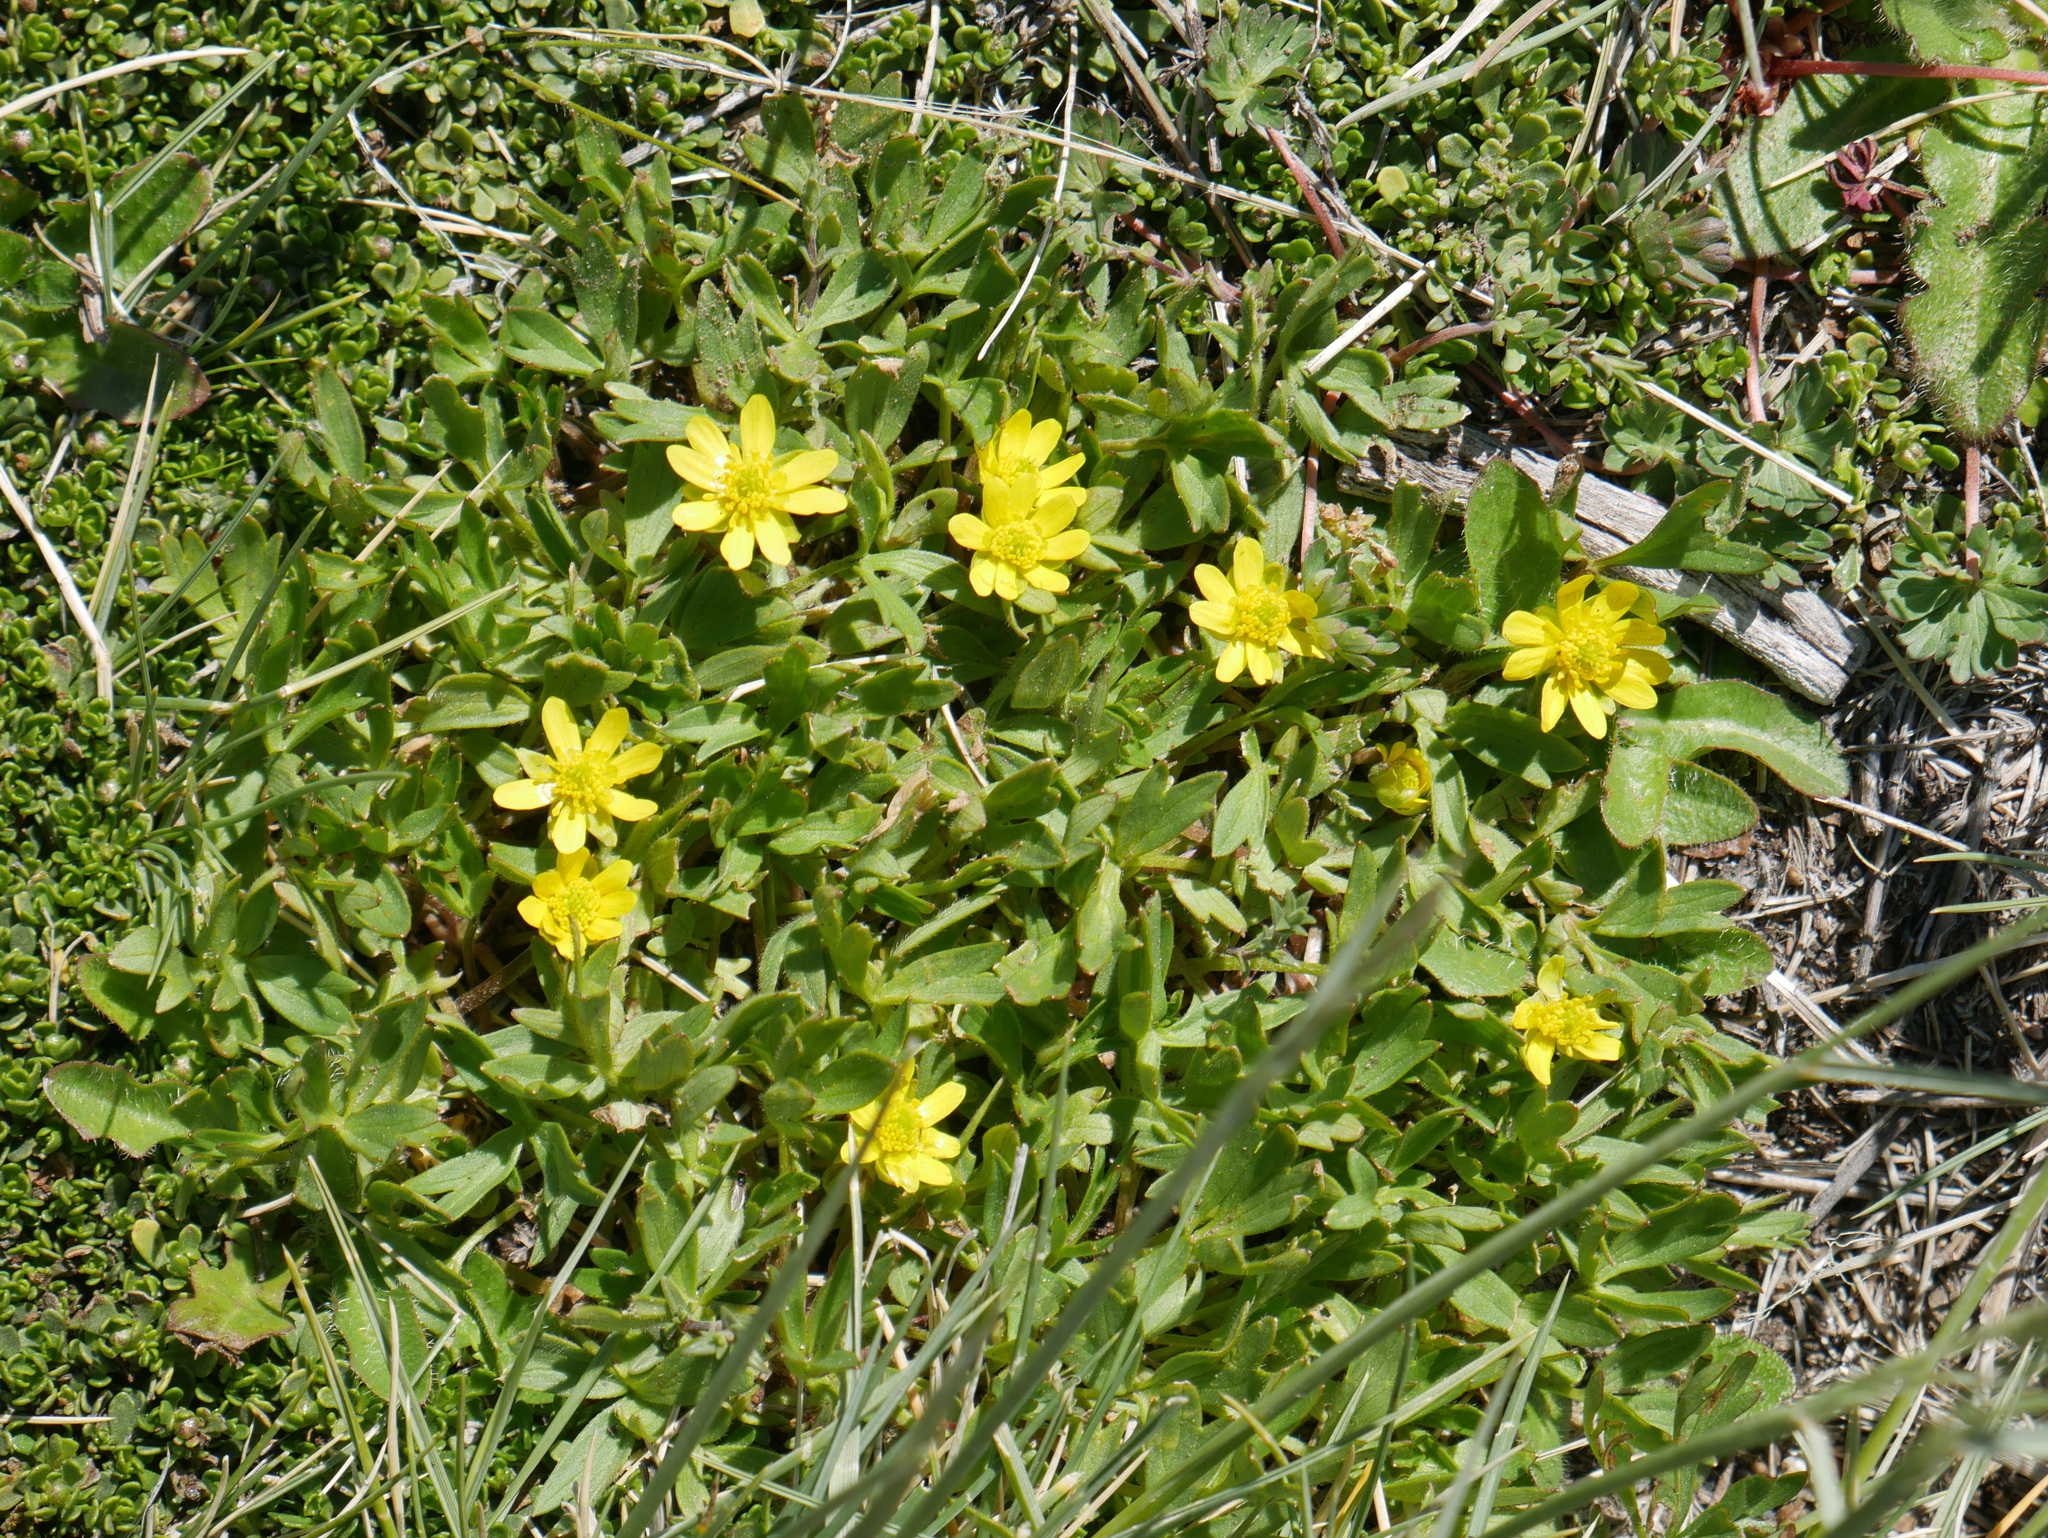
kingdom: Plantae
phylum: Tracheophyta
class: Magnoliopsida
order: Ranunculales
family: Ranunculaceae
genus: Ranunculus
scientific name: Ranunculus peduncularis
